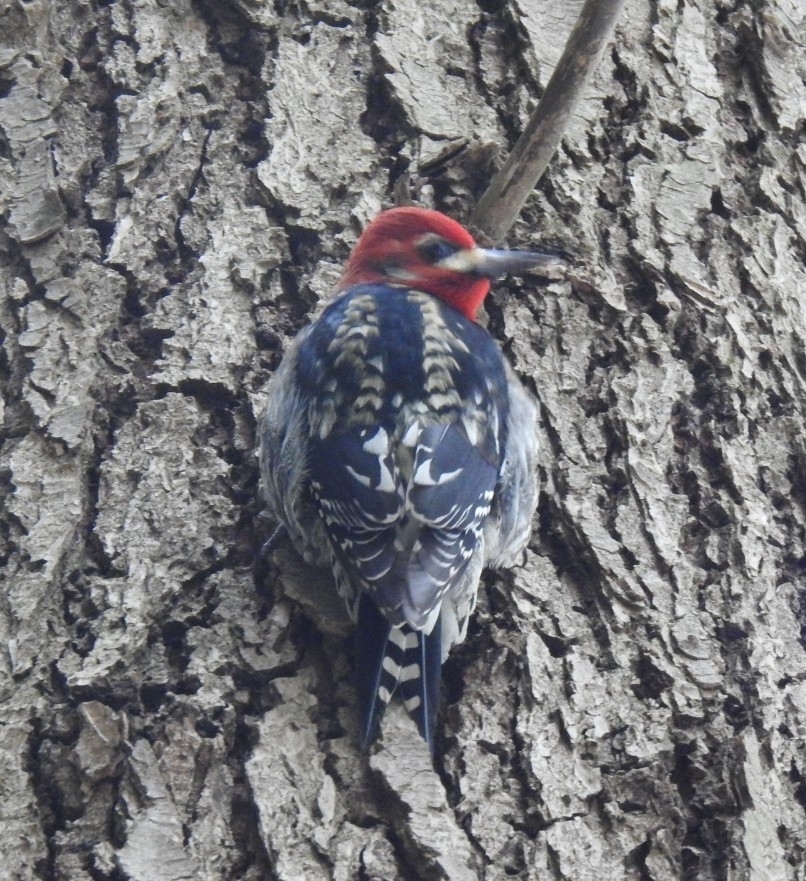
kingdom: Animalia
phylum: Chordata
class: Aves
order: Piciformes
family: Picidae
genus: Sphyrapicus
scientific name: Sphyrapicus ruber
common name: Red-breasted sapsucker
